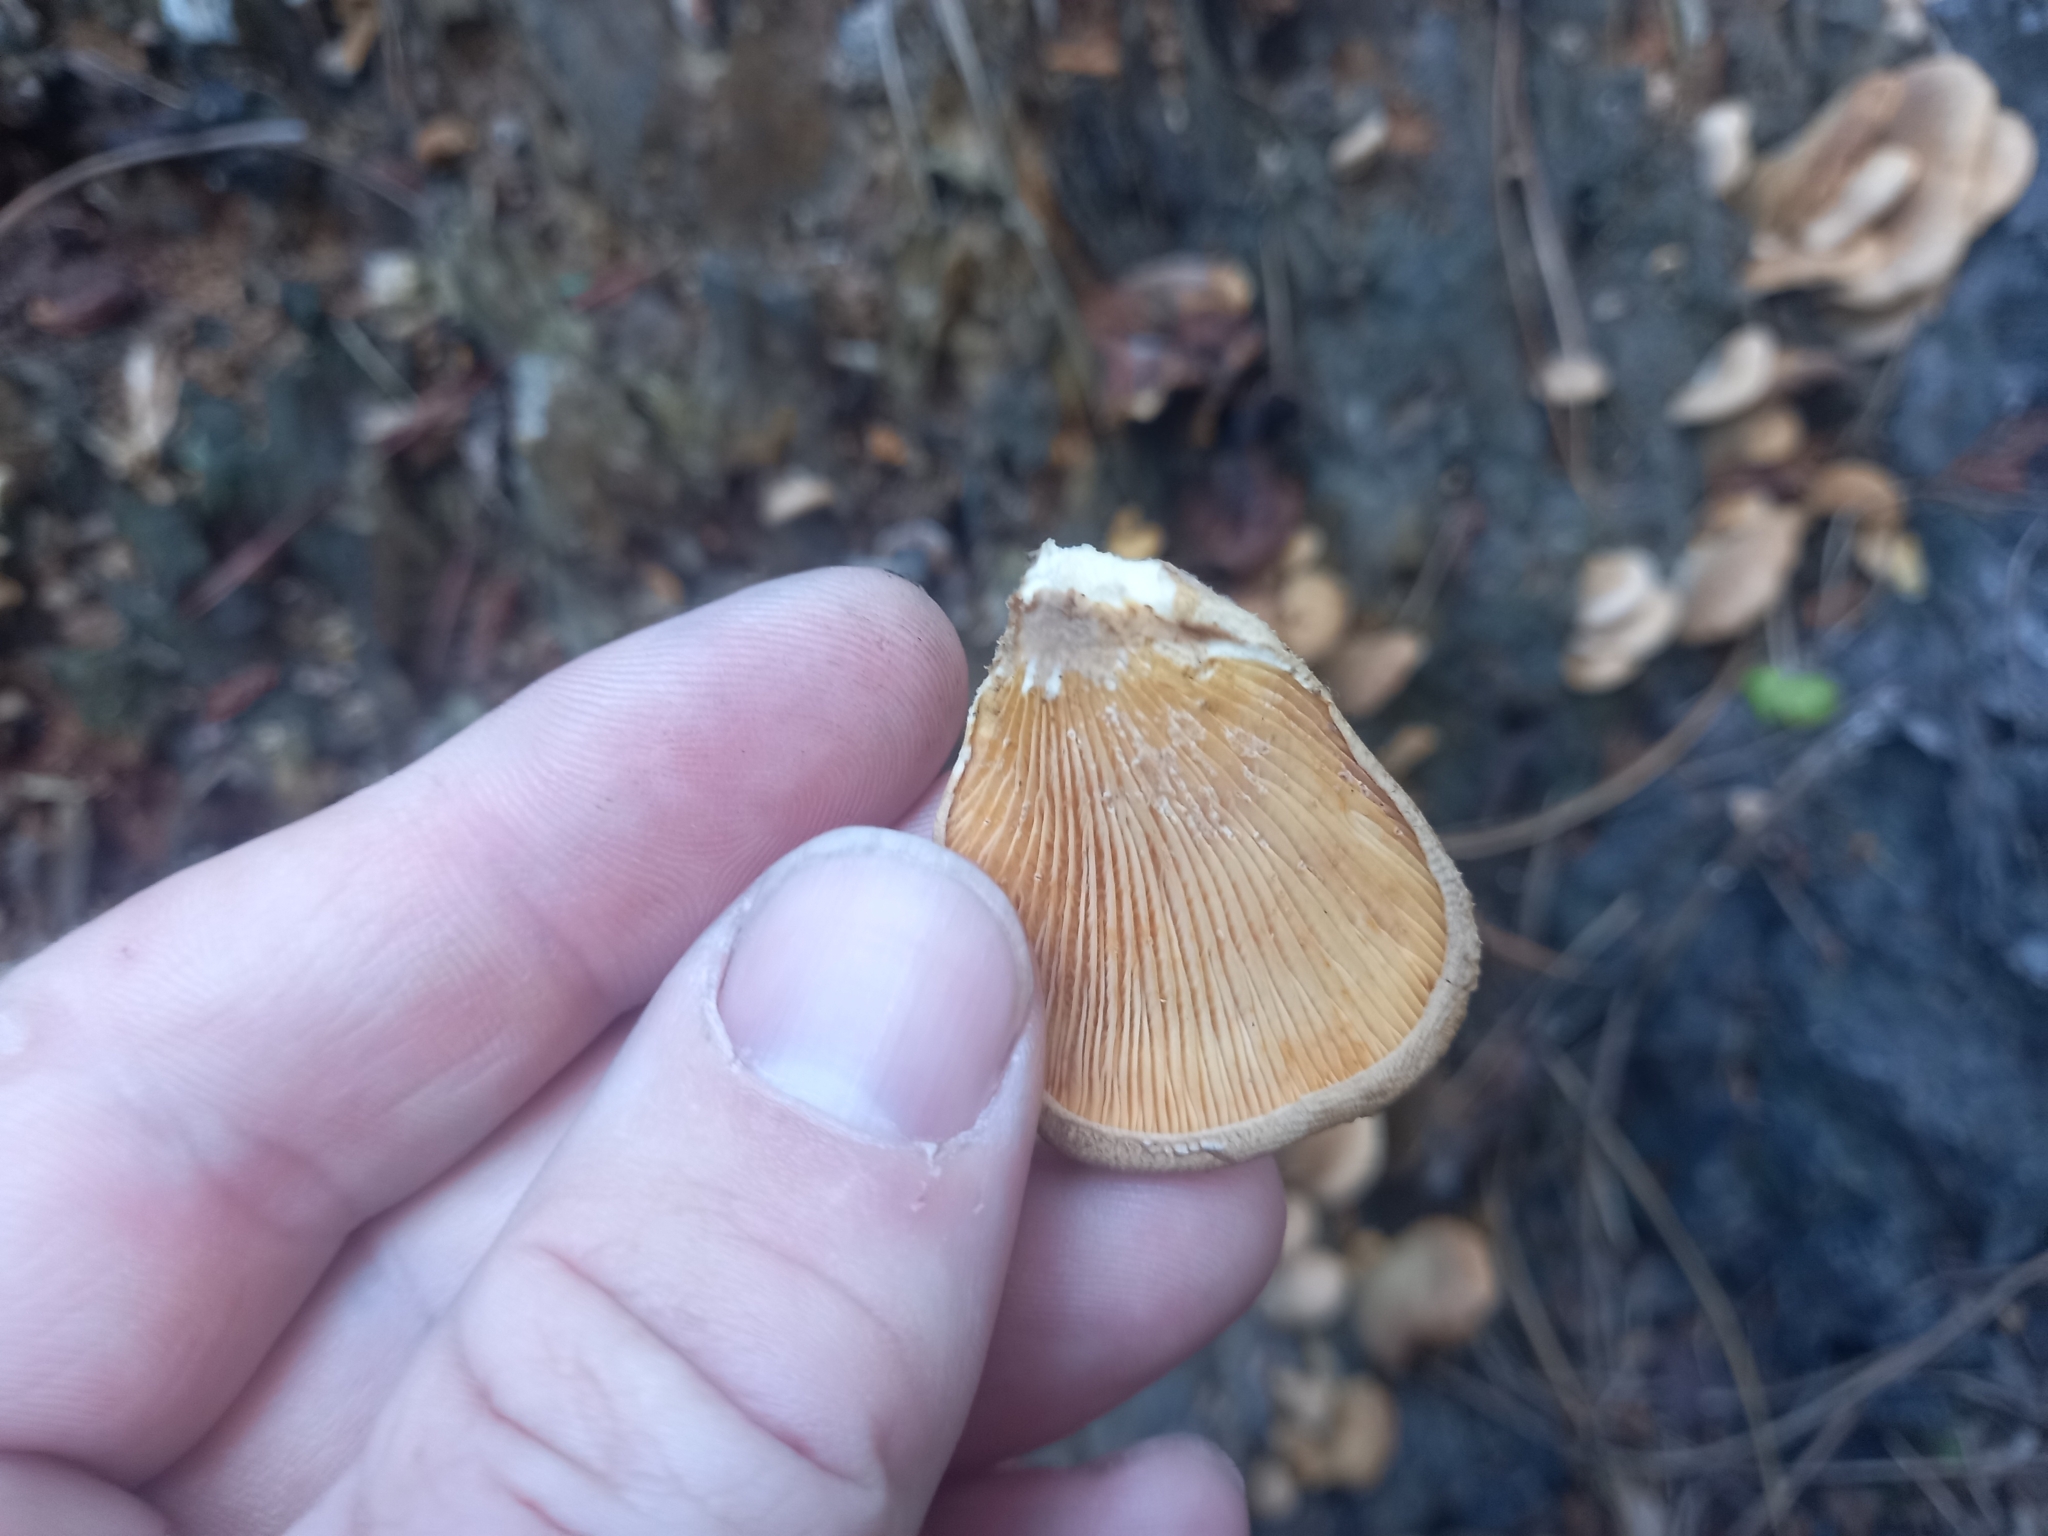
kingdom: Fungi
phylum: Basidiomycota
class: Agaricomycetes
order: Agaricales
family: Mycenaceae
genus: Panellus
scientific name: Panellus stipticus
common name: Bitter oysterling
